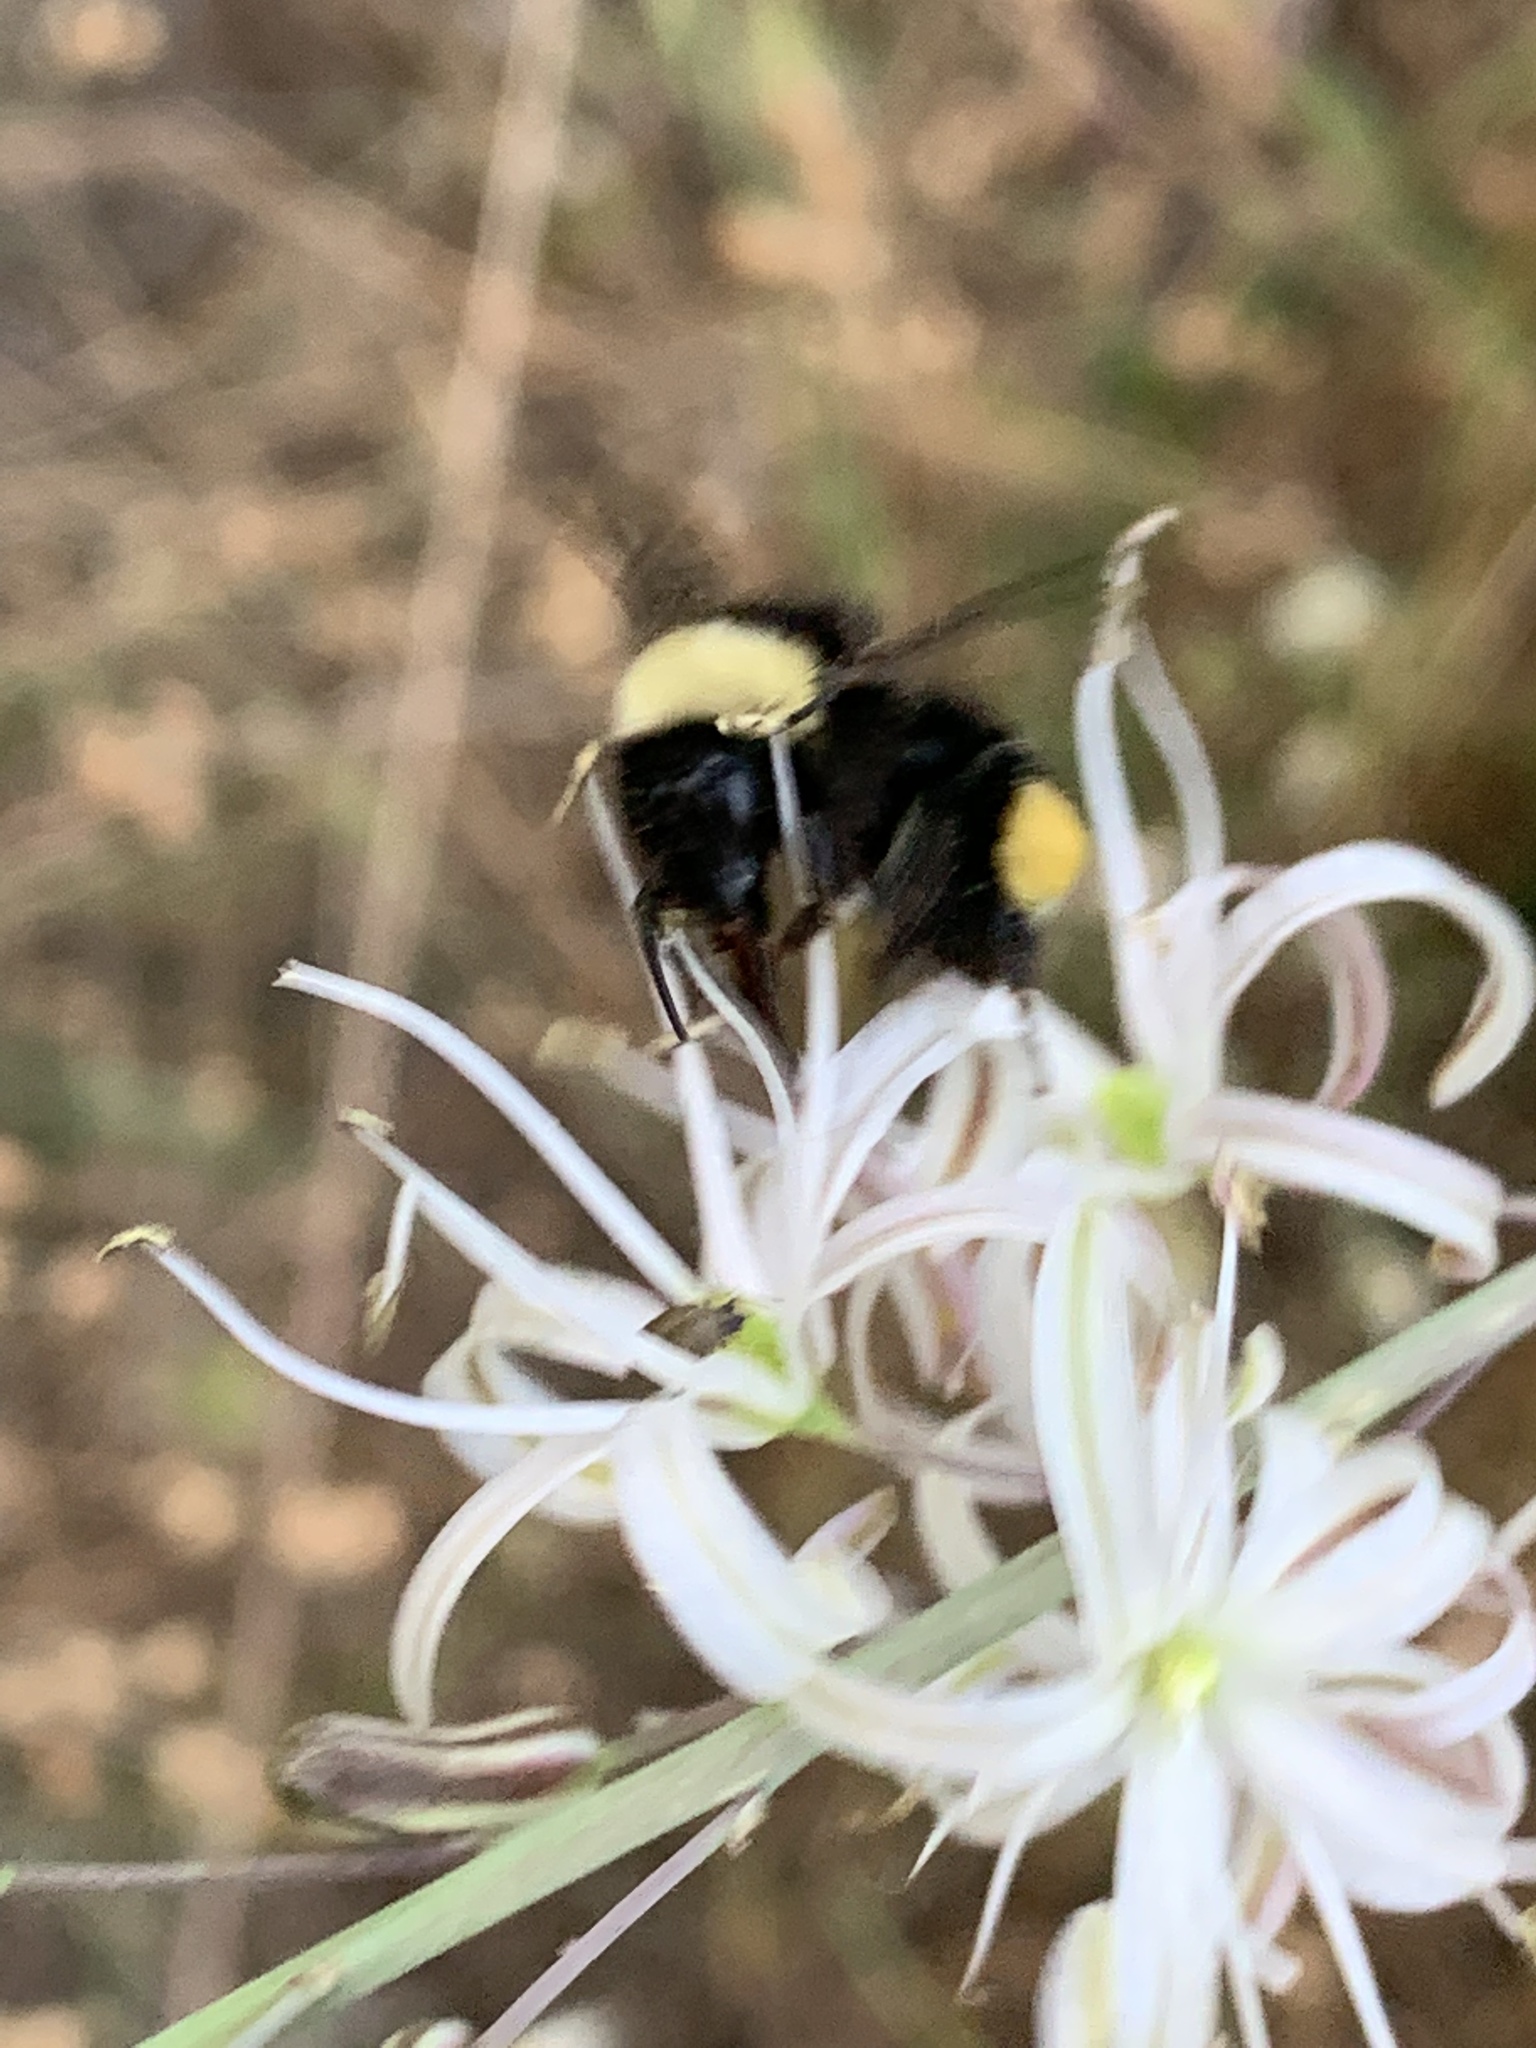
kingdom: Animalia
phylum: Arthropoda
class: Insecta
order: Hymenoptera
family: Apidae
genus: Bombus
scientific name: Bombus californicus
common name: California bumble bee
